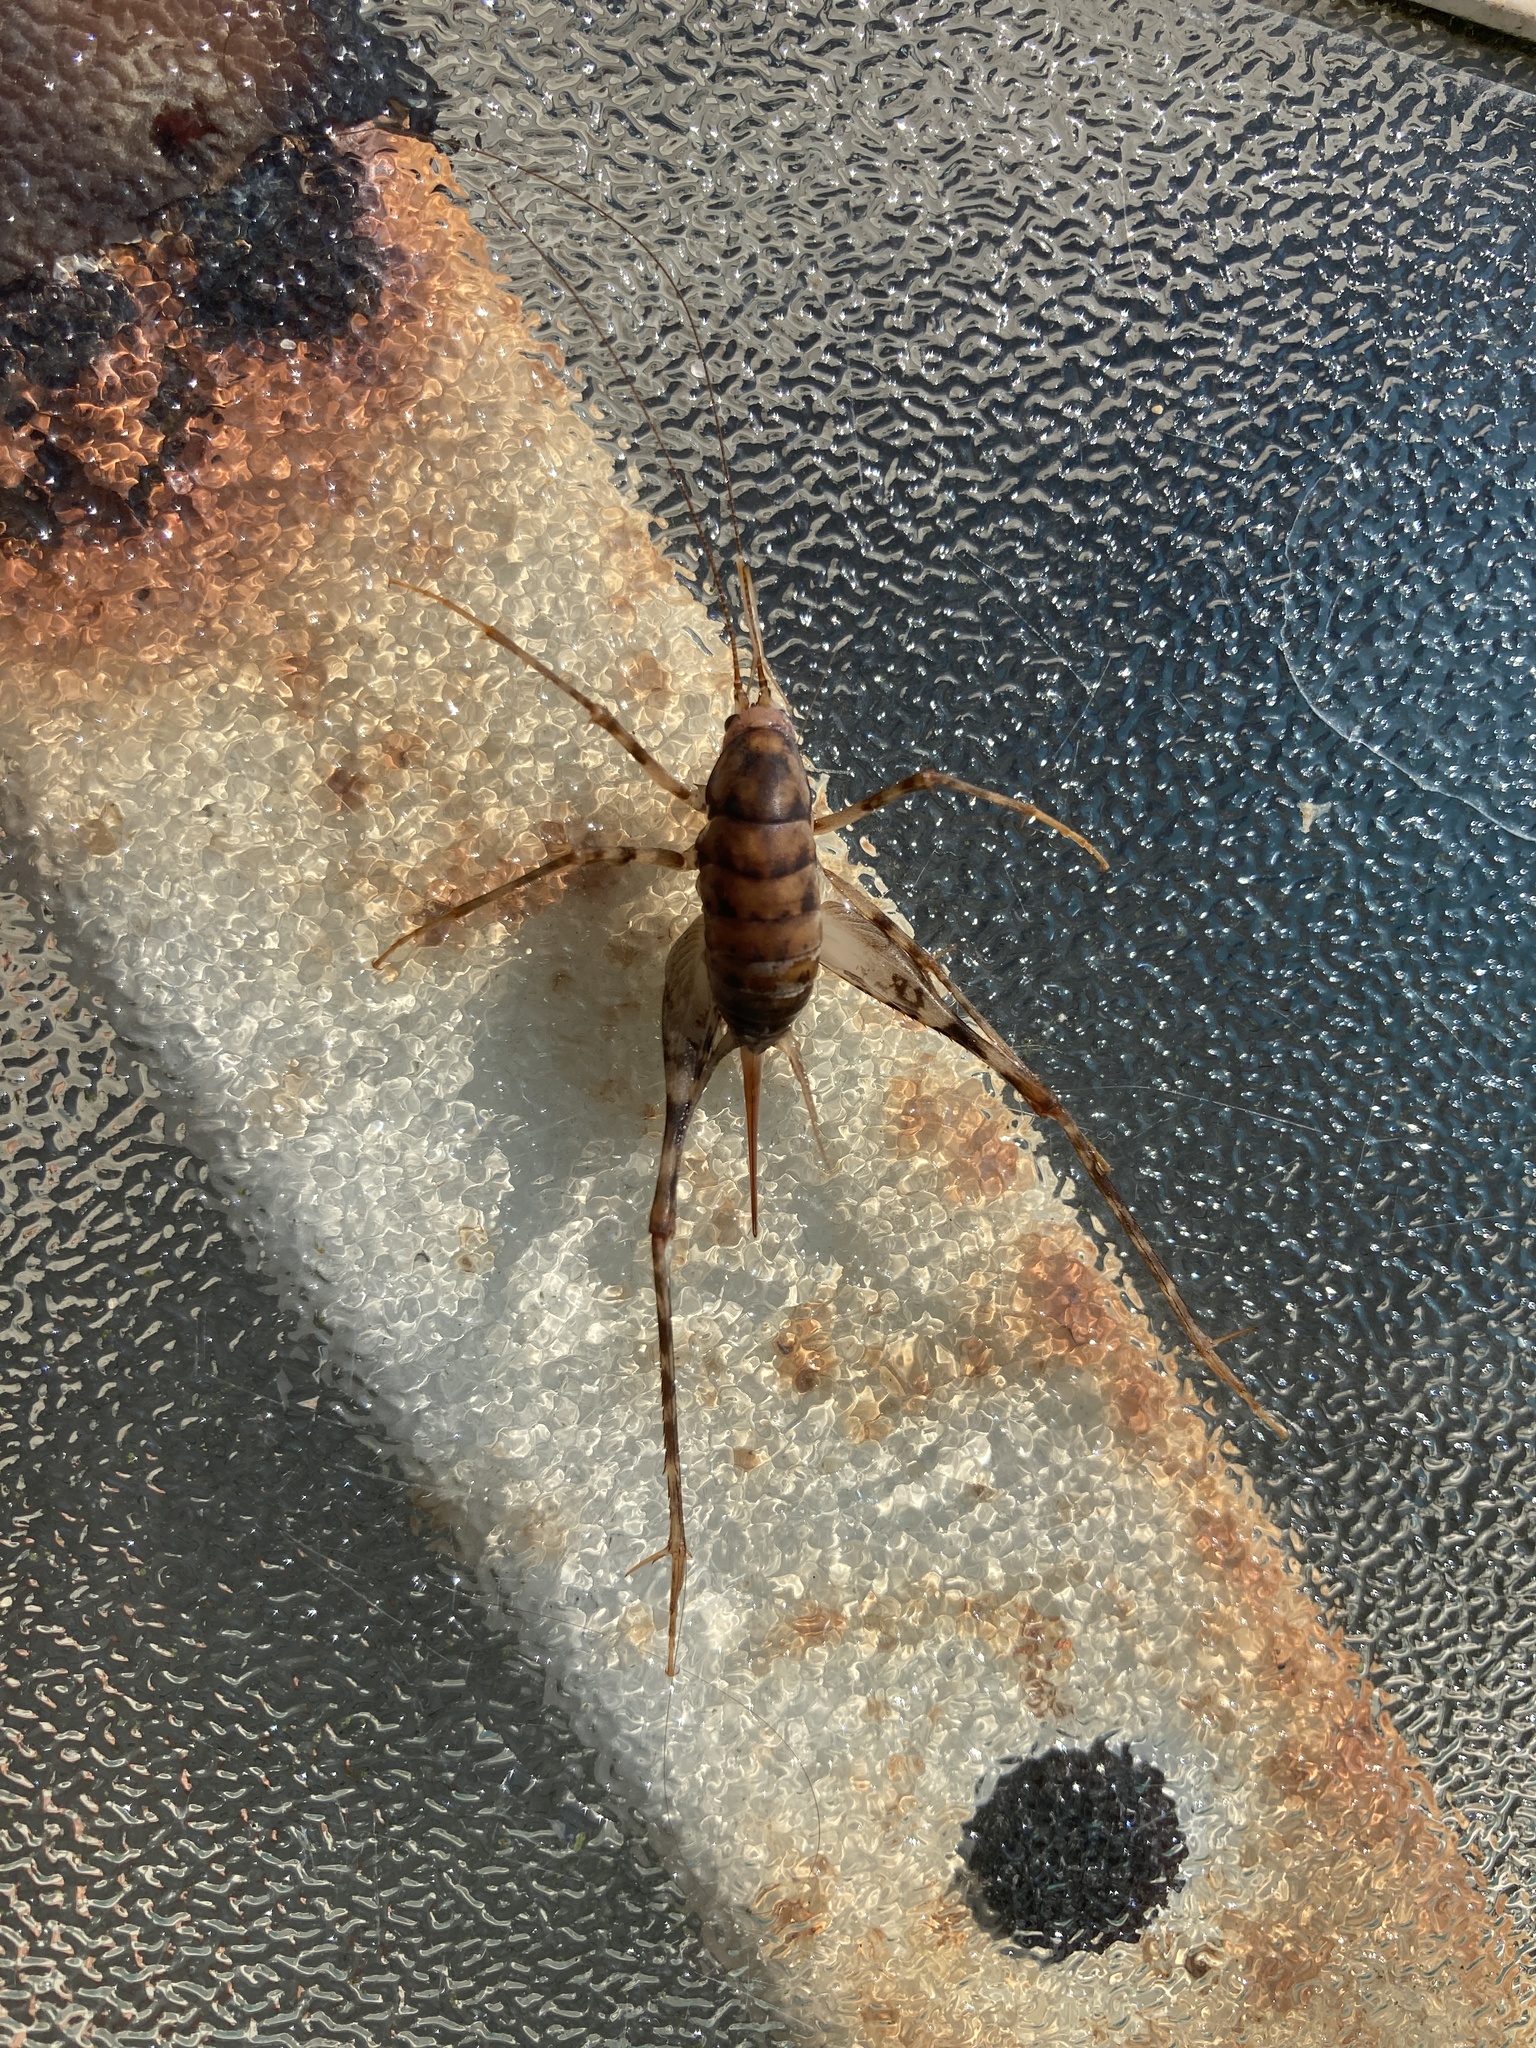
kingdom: Animalia
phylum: Arthropoda
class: Insecta
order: Orthoptera
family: Rhaphidophoridae
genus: Tachycines
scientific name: Tachycines asynamorus
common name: Greenhouse camel cricket
